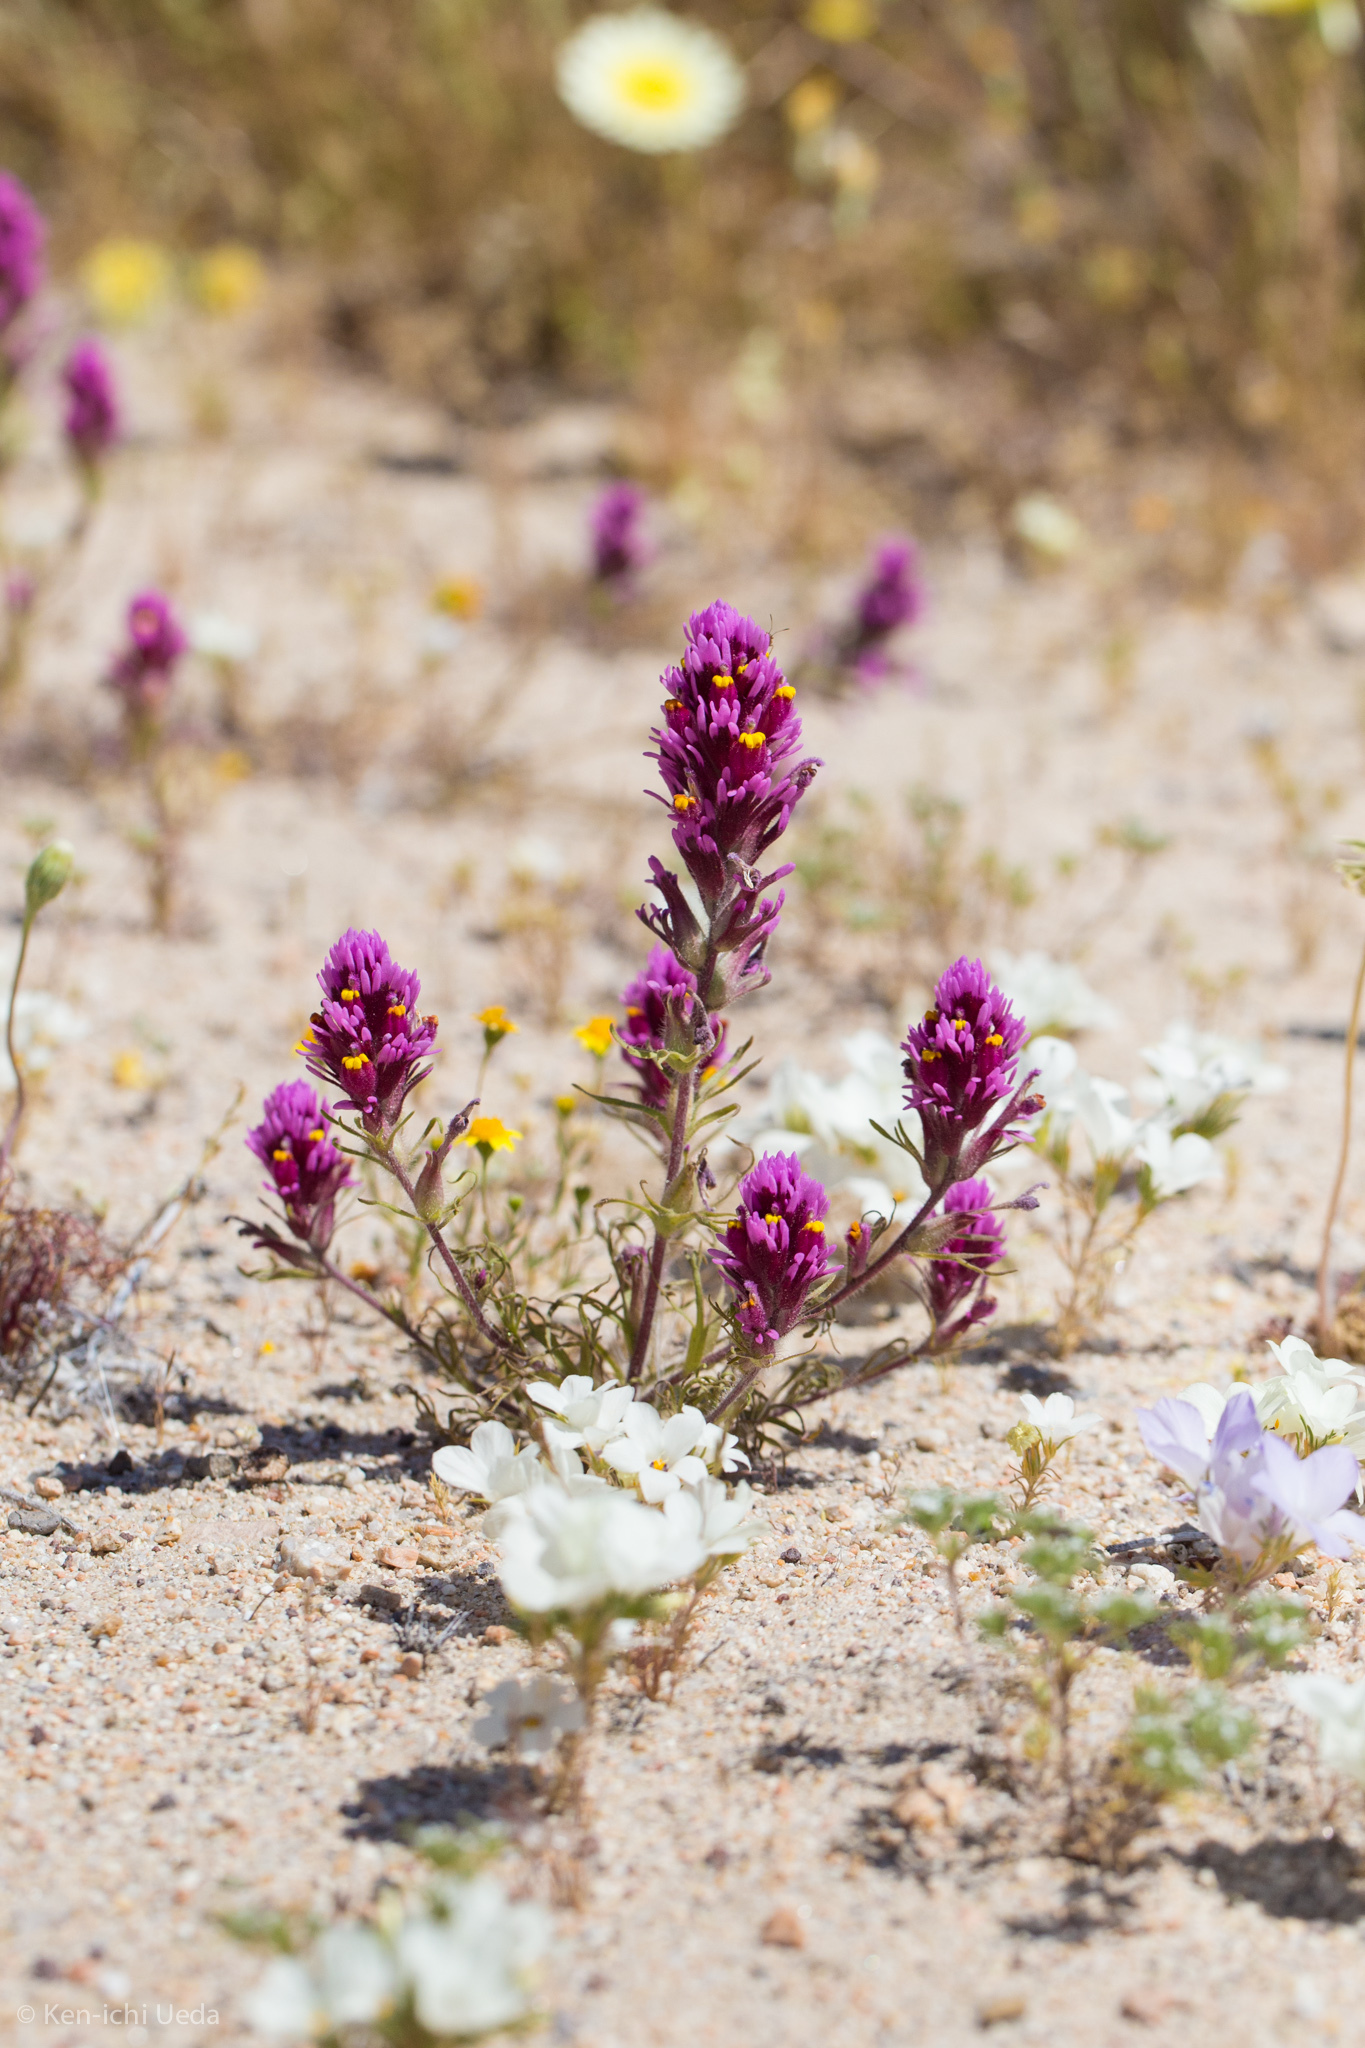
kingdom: Plantae
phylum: Tracheophyta
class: Magnoliopsida
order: Lamiales
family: Orobanchaceae
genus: Castilleja
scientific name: Castilleja exserta
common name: Purple owl-clover
